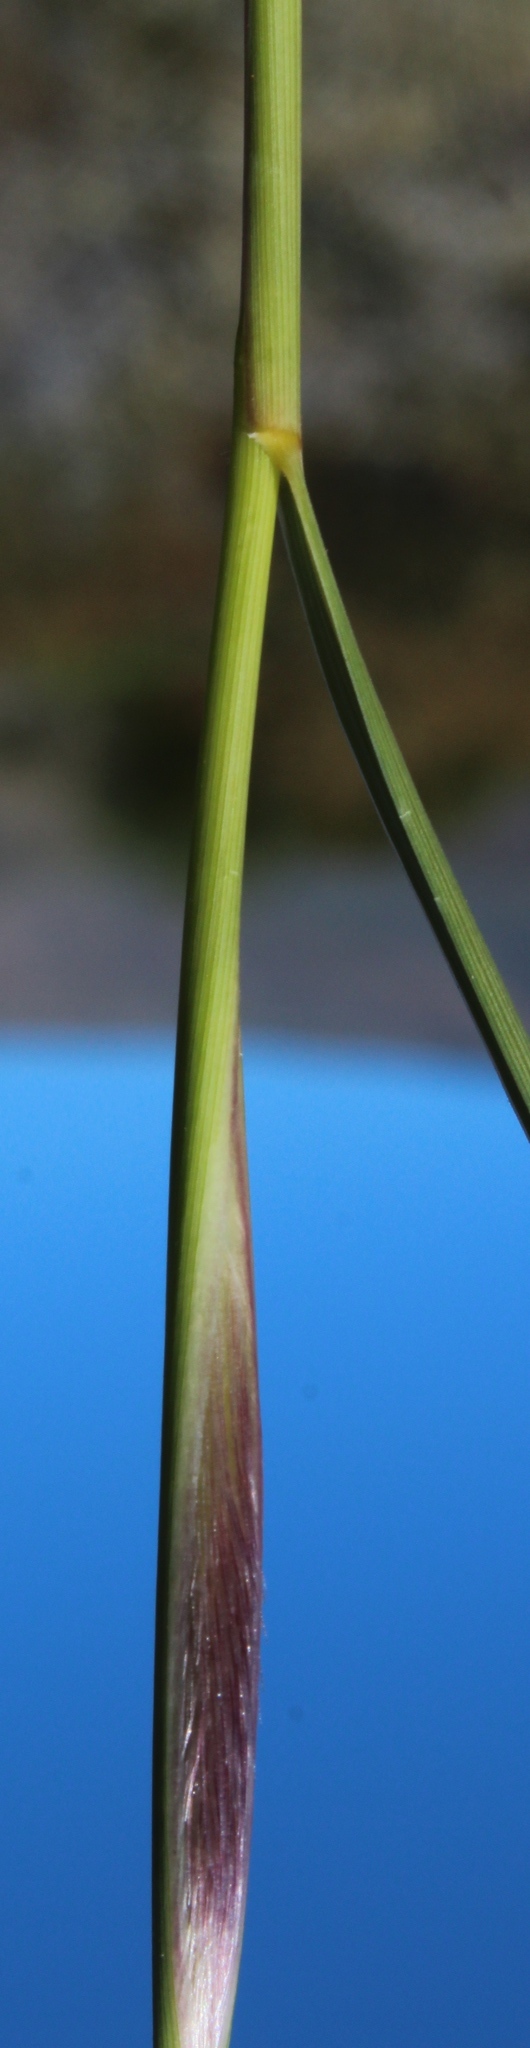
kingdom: Plantae
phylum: Tracheophyta
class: Liliopsida
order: Poales
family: Poaceae
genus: Fingerhuthia
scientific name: Fingerhuthia africana
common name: Zulu fescue
